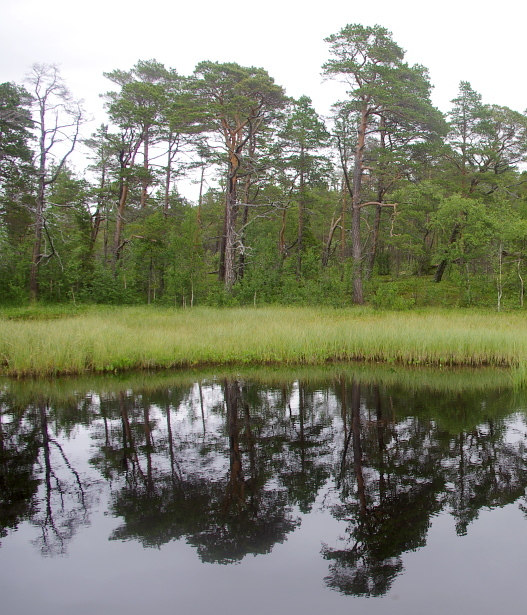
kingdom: Plantae
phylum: Tracheophyta
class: Pinopsida
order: Pinales
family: Pinaceae
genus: Pinus
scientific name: Pinus sylvestris
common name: Scots pine
